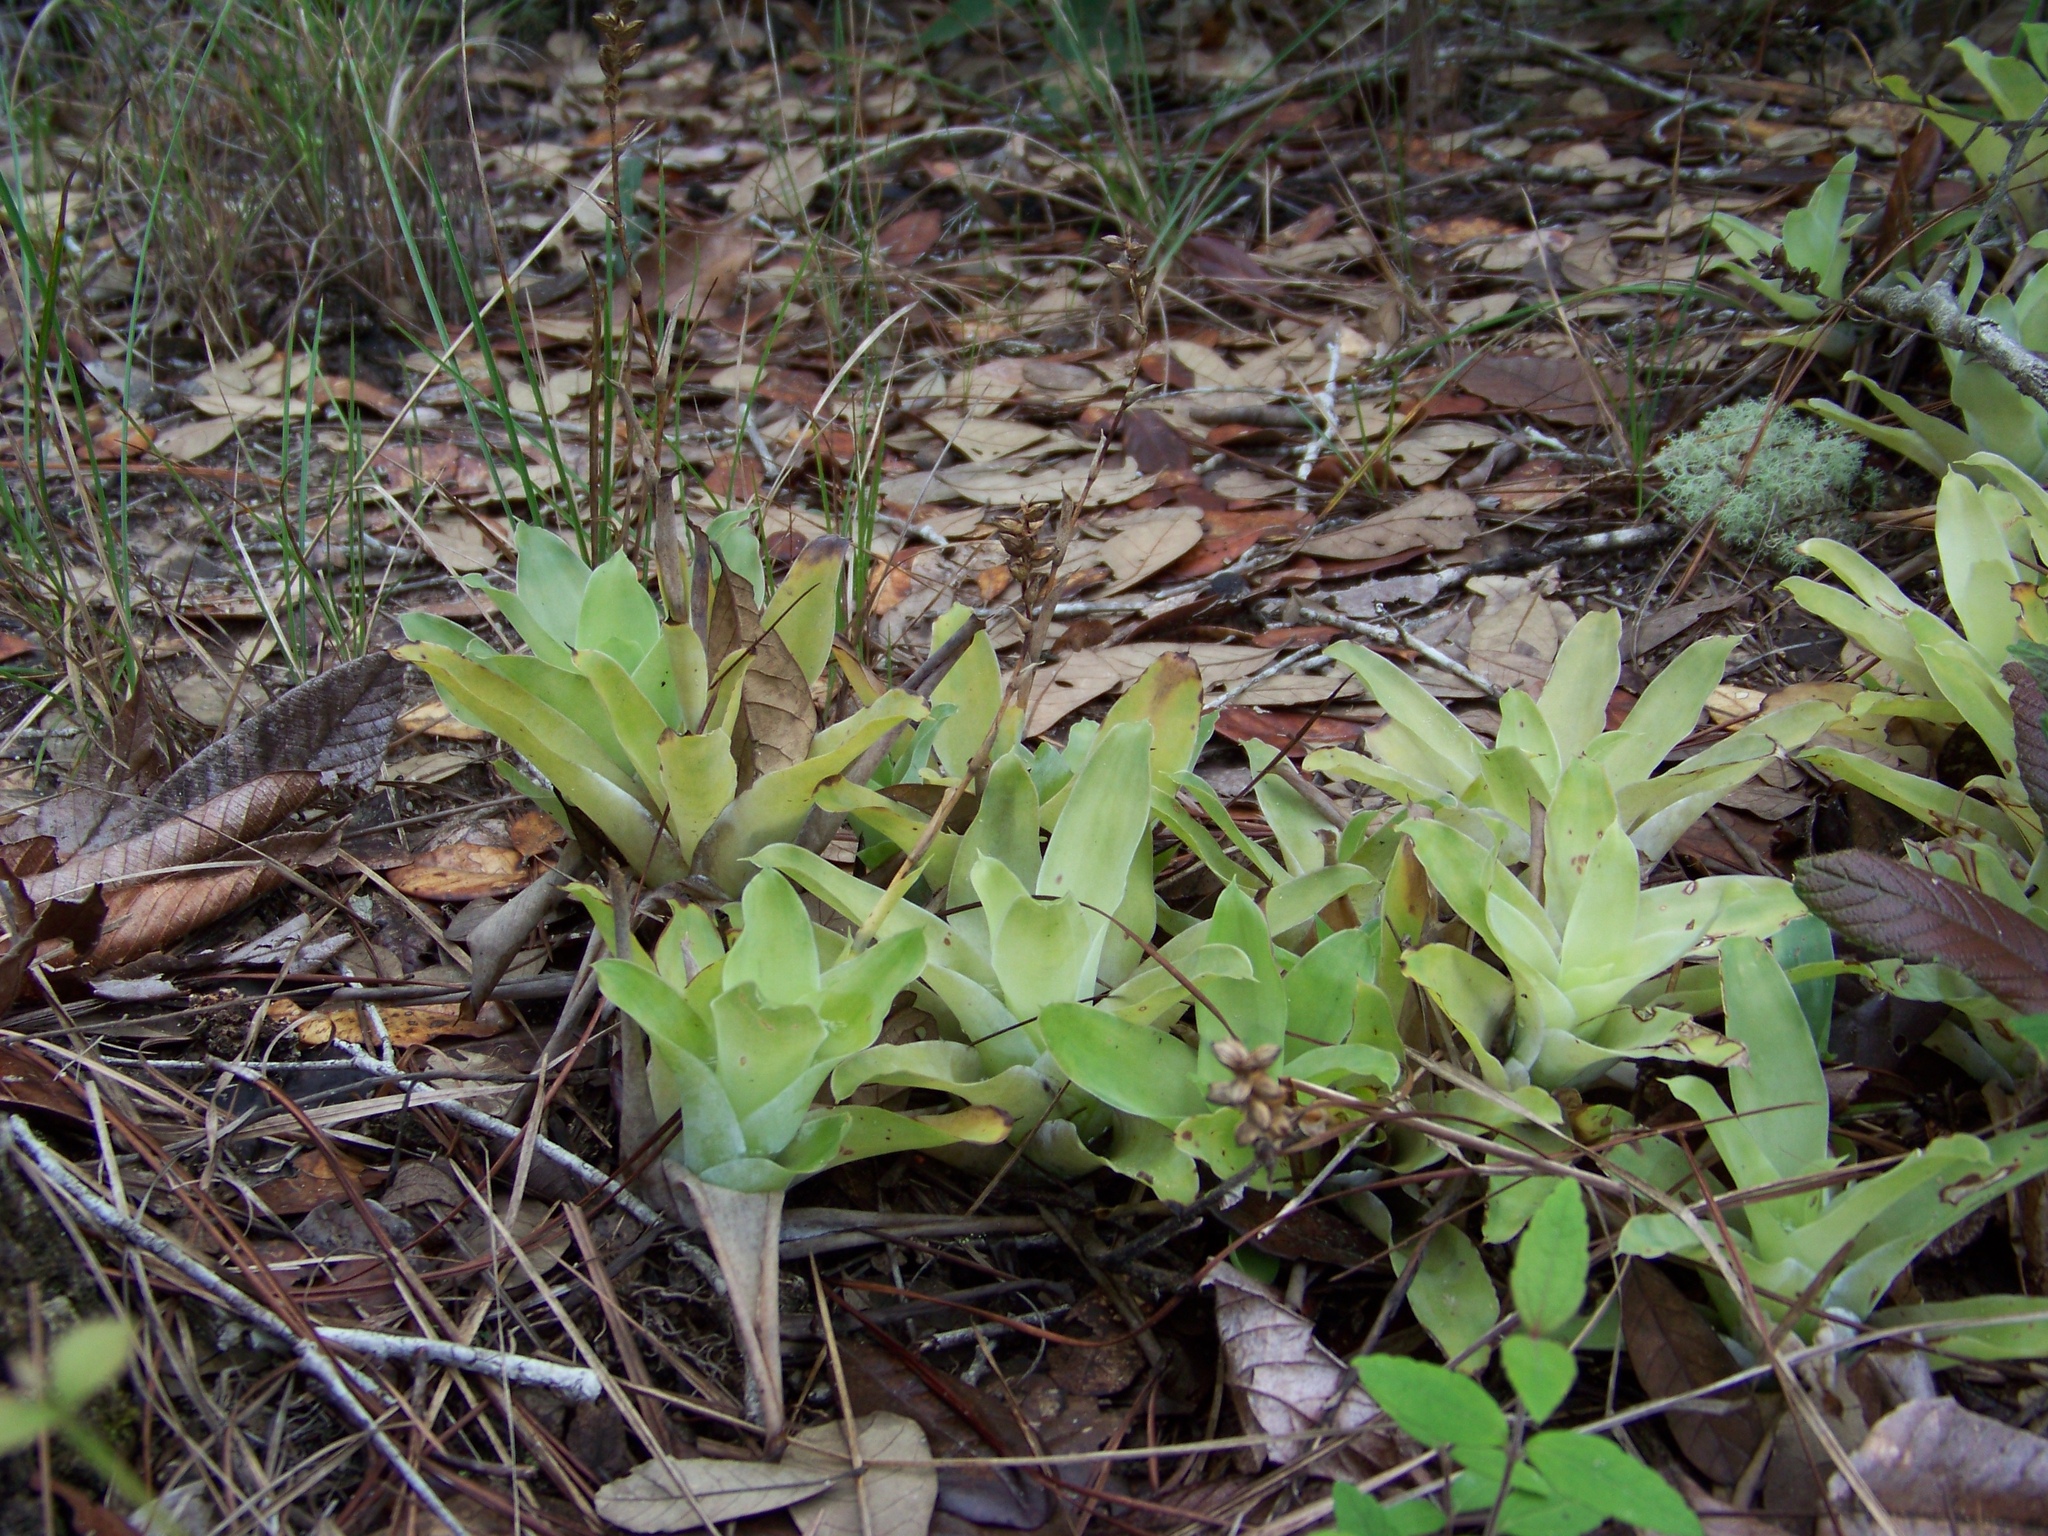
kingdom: Plantae
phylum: Tracheophyta
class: Liliopsida
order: Poales
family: Bromeliaceae
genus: Catopsis
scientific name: Catopsis morreniana
